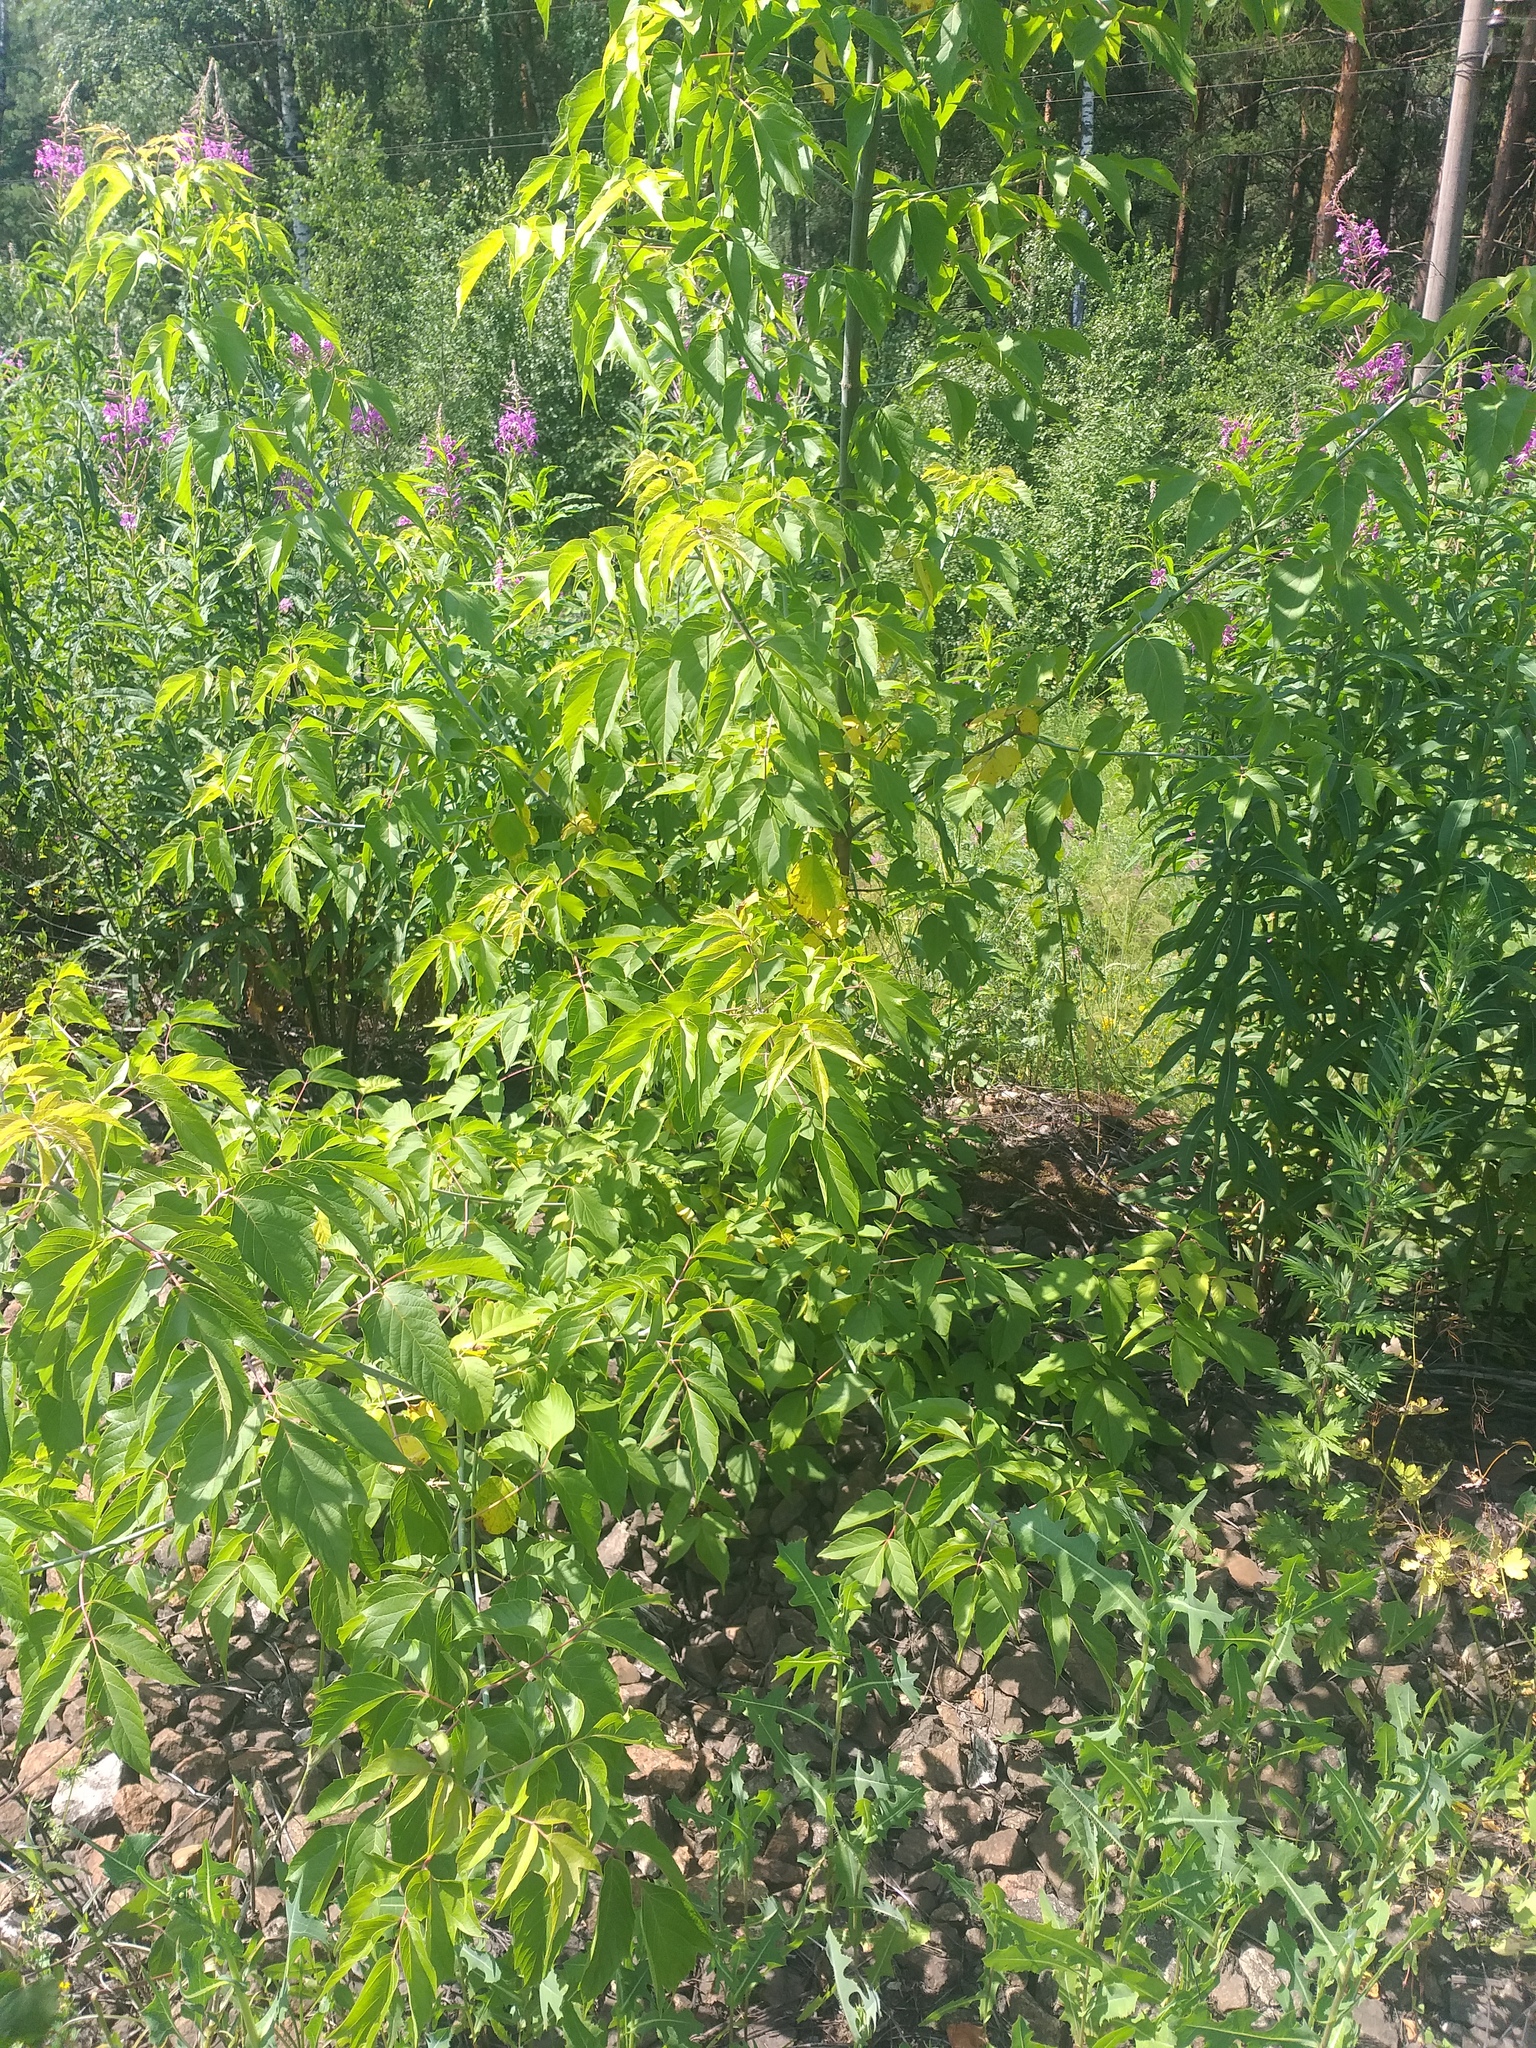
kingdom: Plantae
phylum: Tracheophyta
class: Magnoliopsida
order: Sapindales
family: Sapindaceae
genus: Acer
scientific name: Acer negundo
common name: Ashleaf maple
